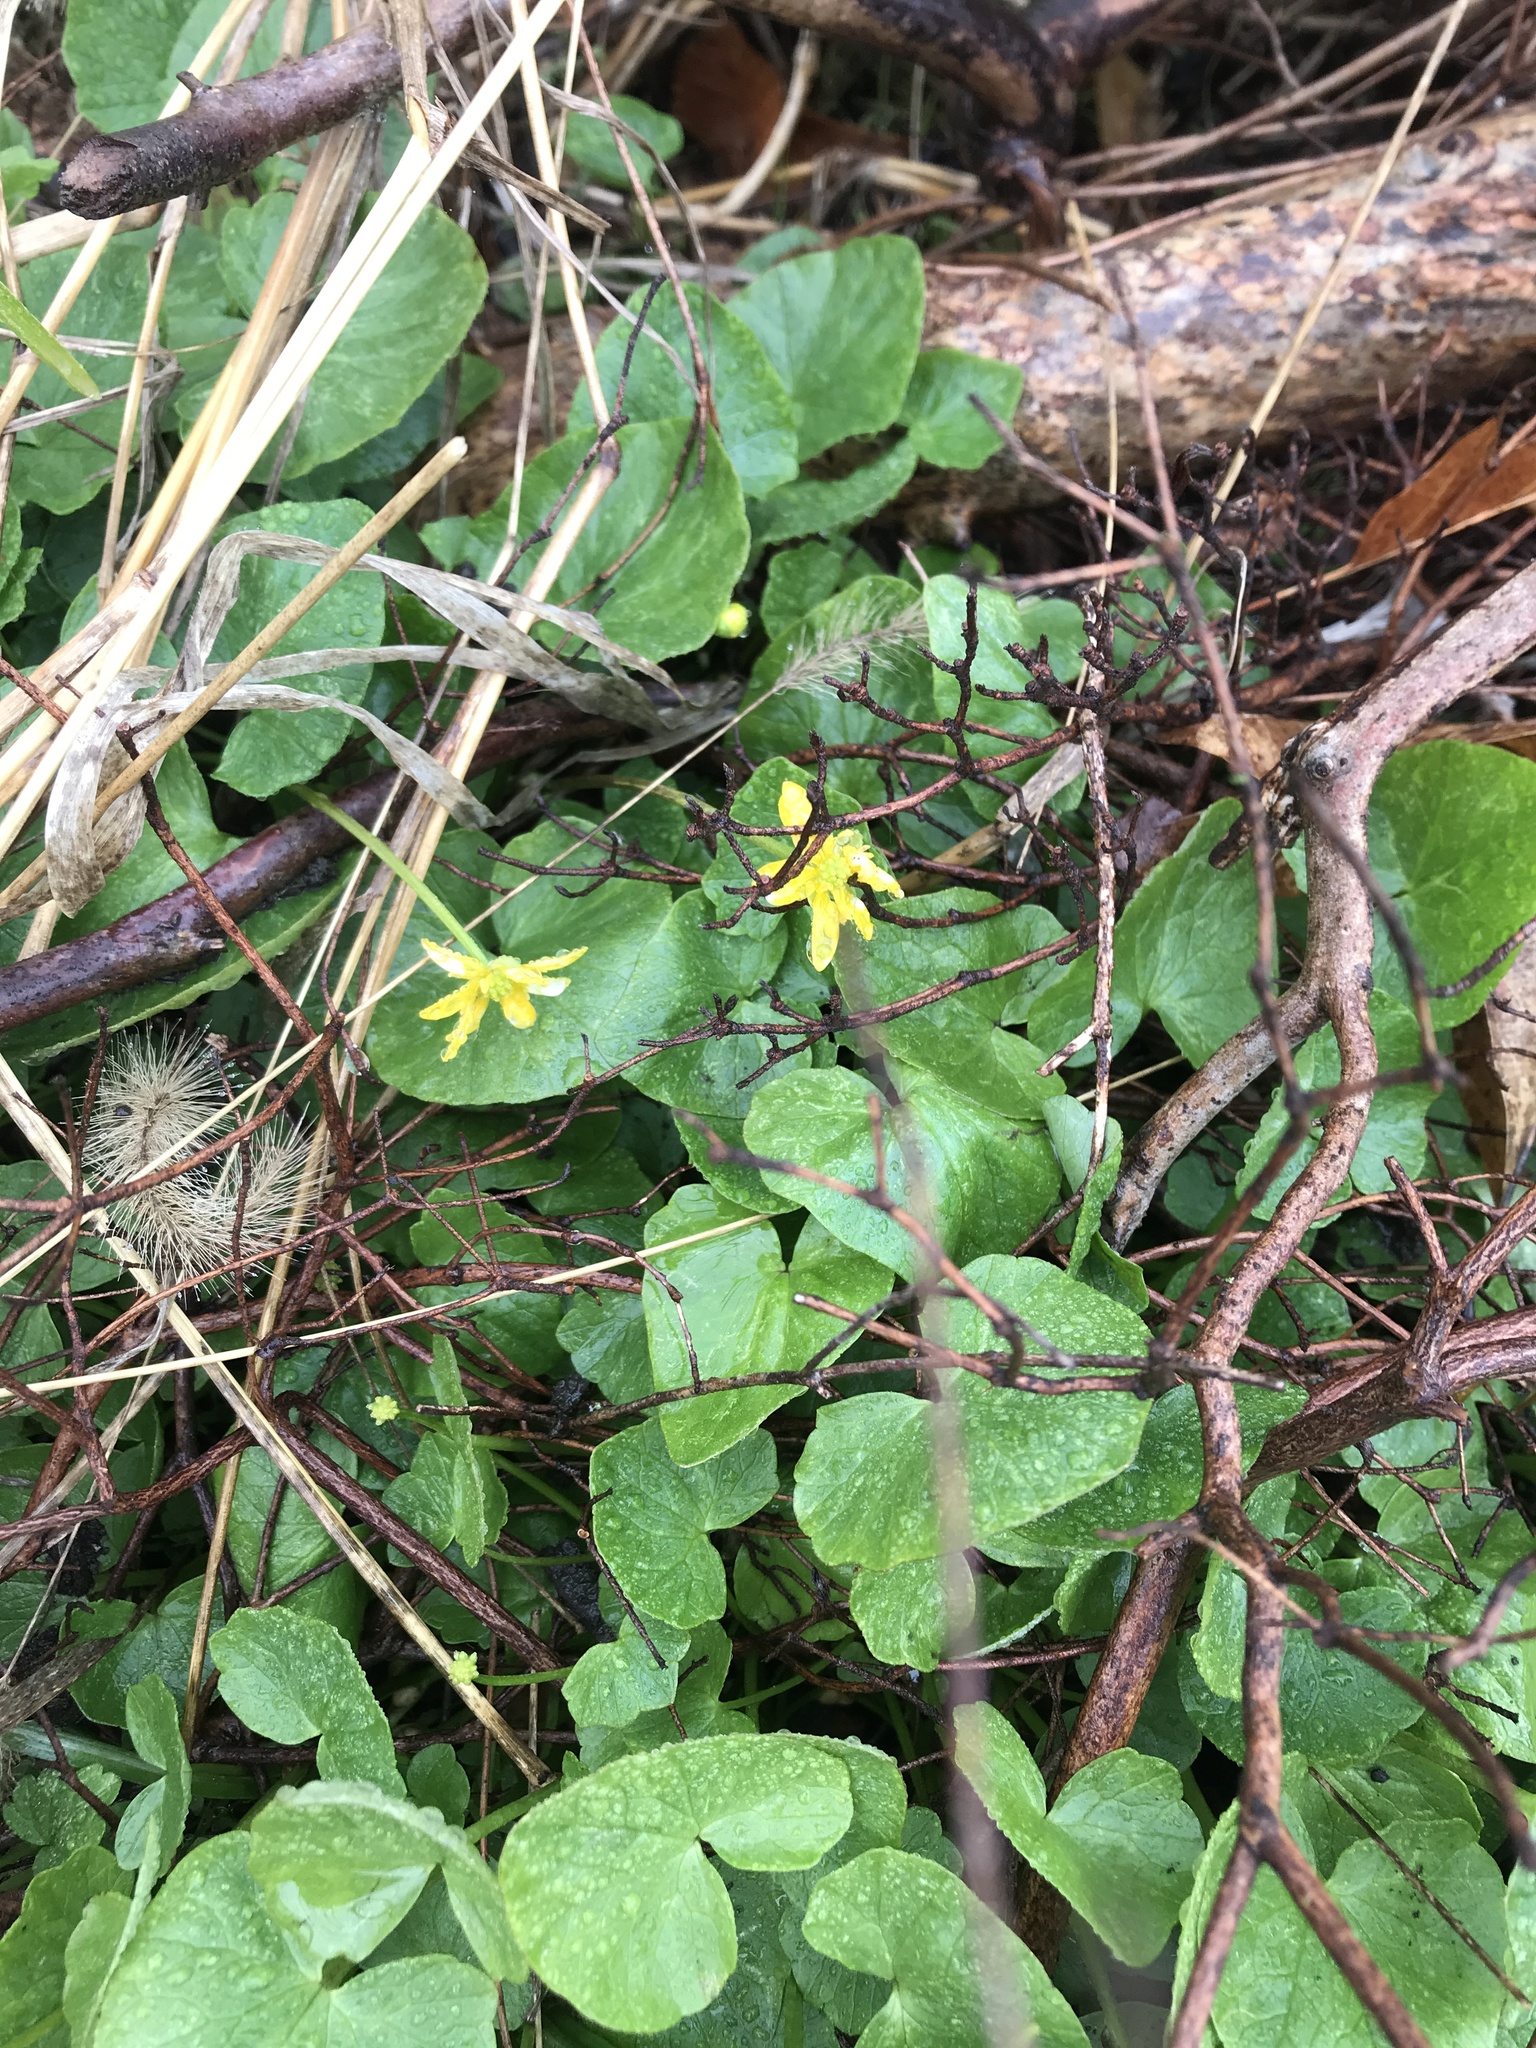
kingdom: Plantae
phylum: Tracheophyta
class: Magnoliopsida
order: Ranunculales
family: Ranunculaceae
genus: Ficaria
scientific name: Ficaria verna
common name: Lesser celandine
